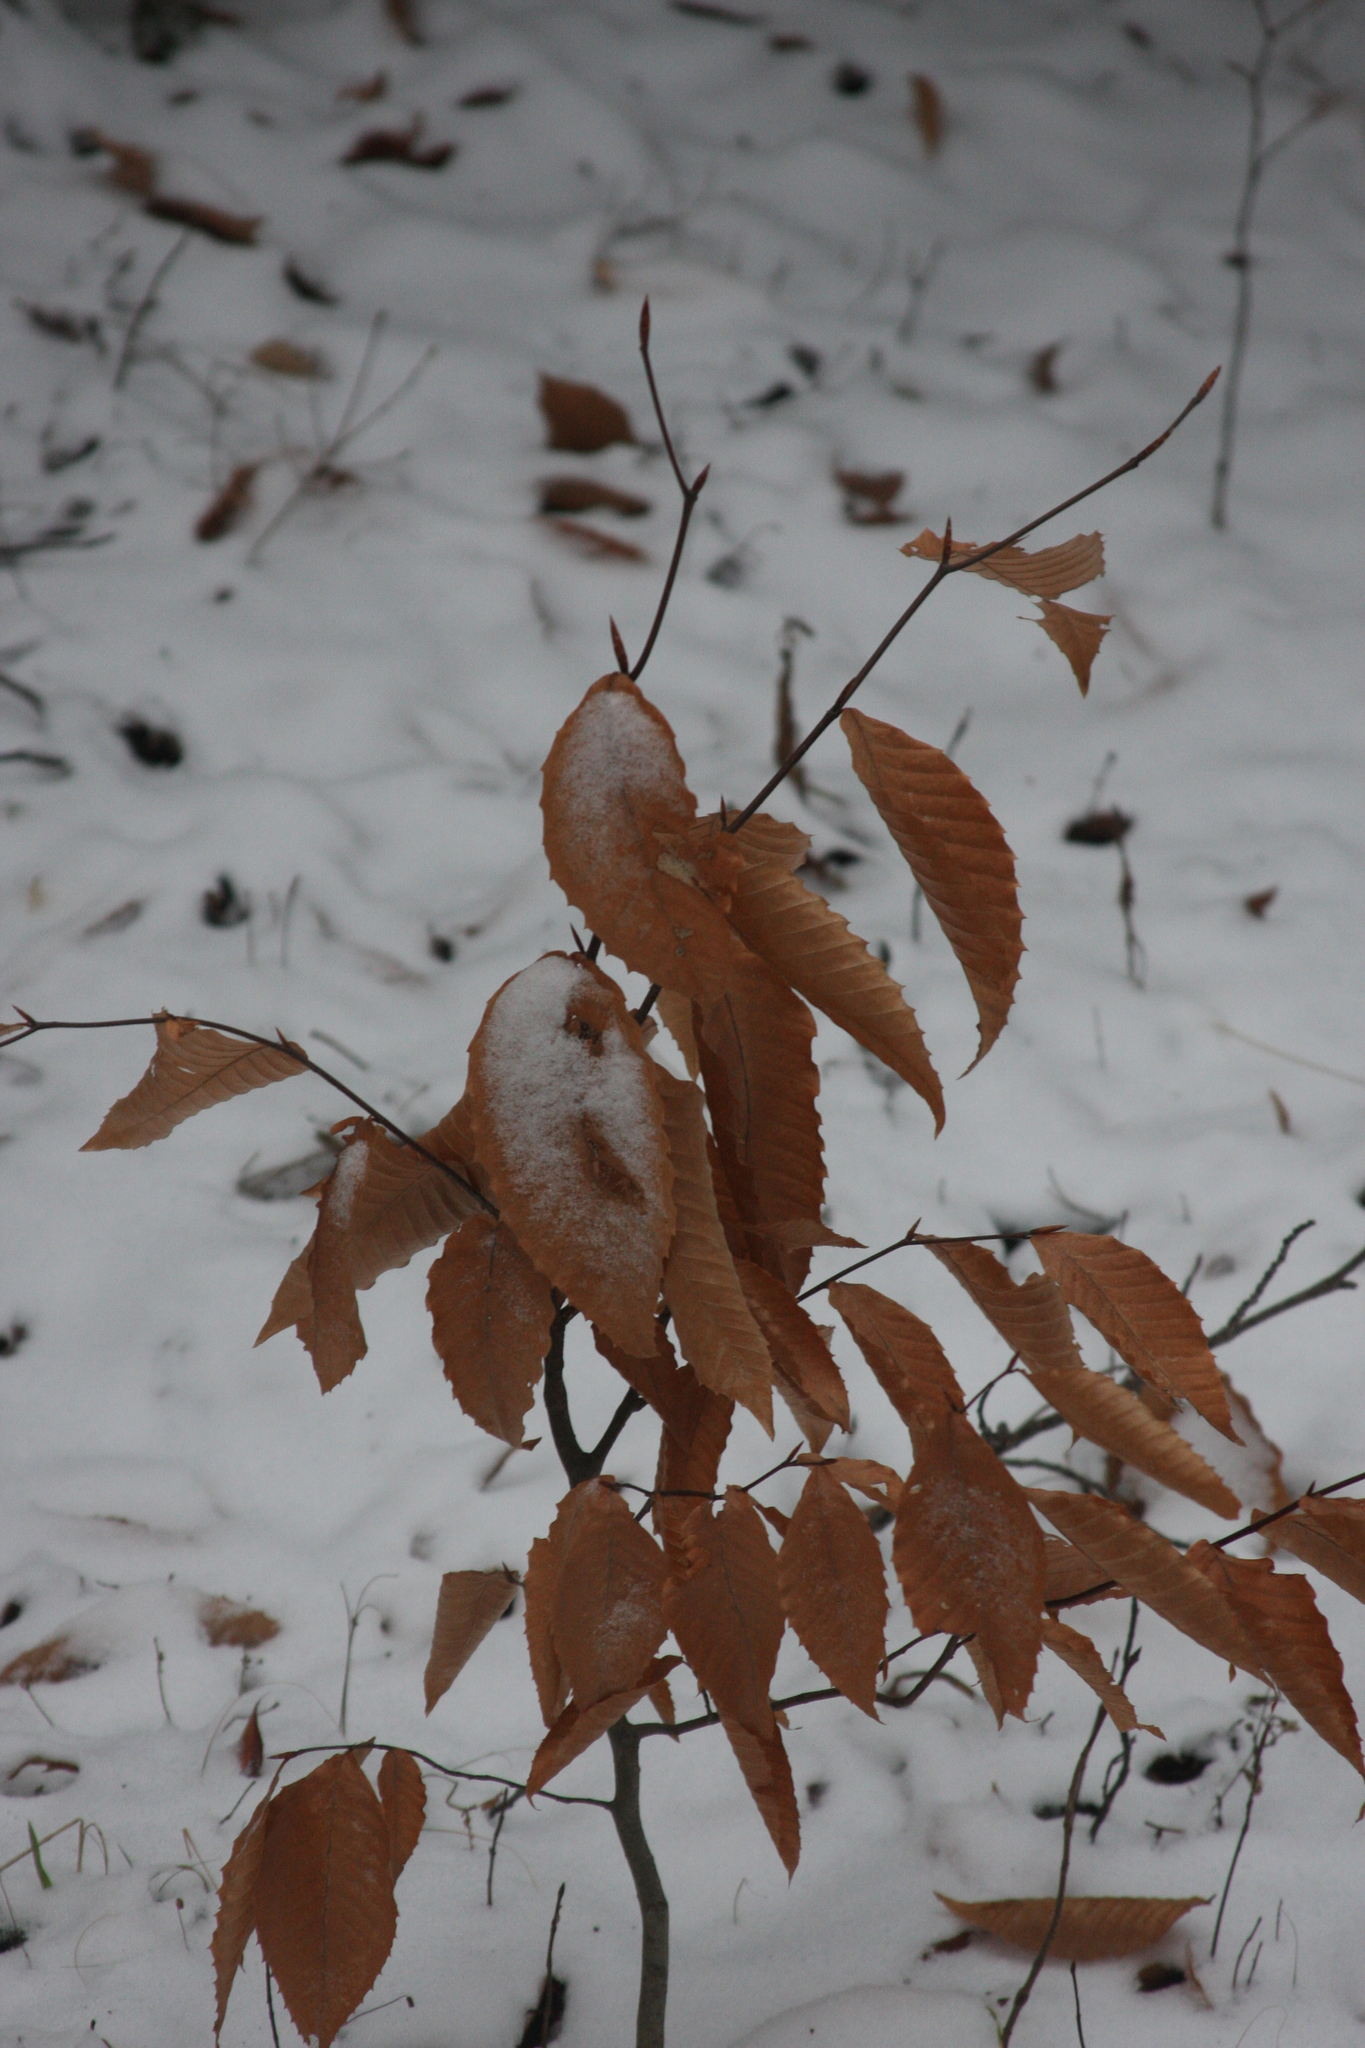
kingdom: Plantae
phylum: Tracheophyta
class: Magnoliopsida
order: Fagales
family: Fagaceae
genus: Fagus
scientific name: Fagus grandifolia
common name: American beech
